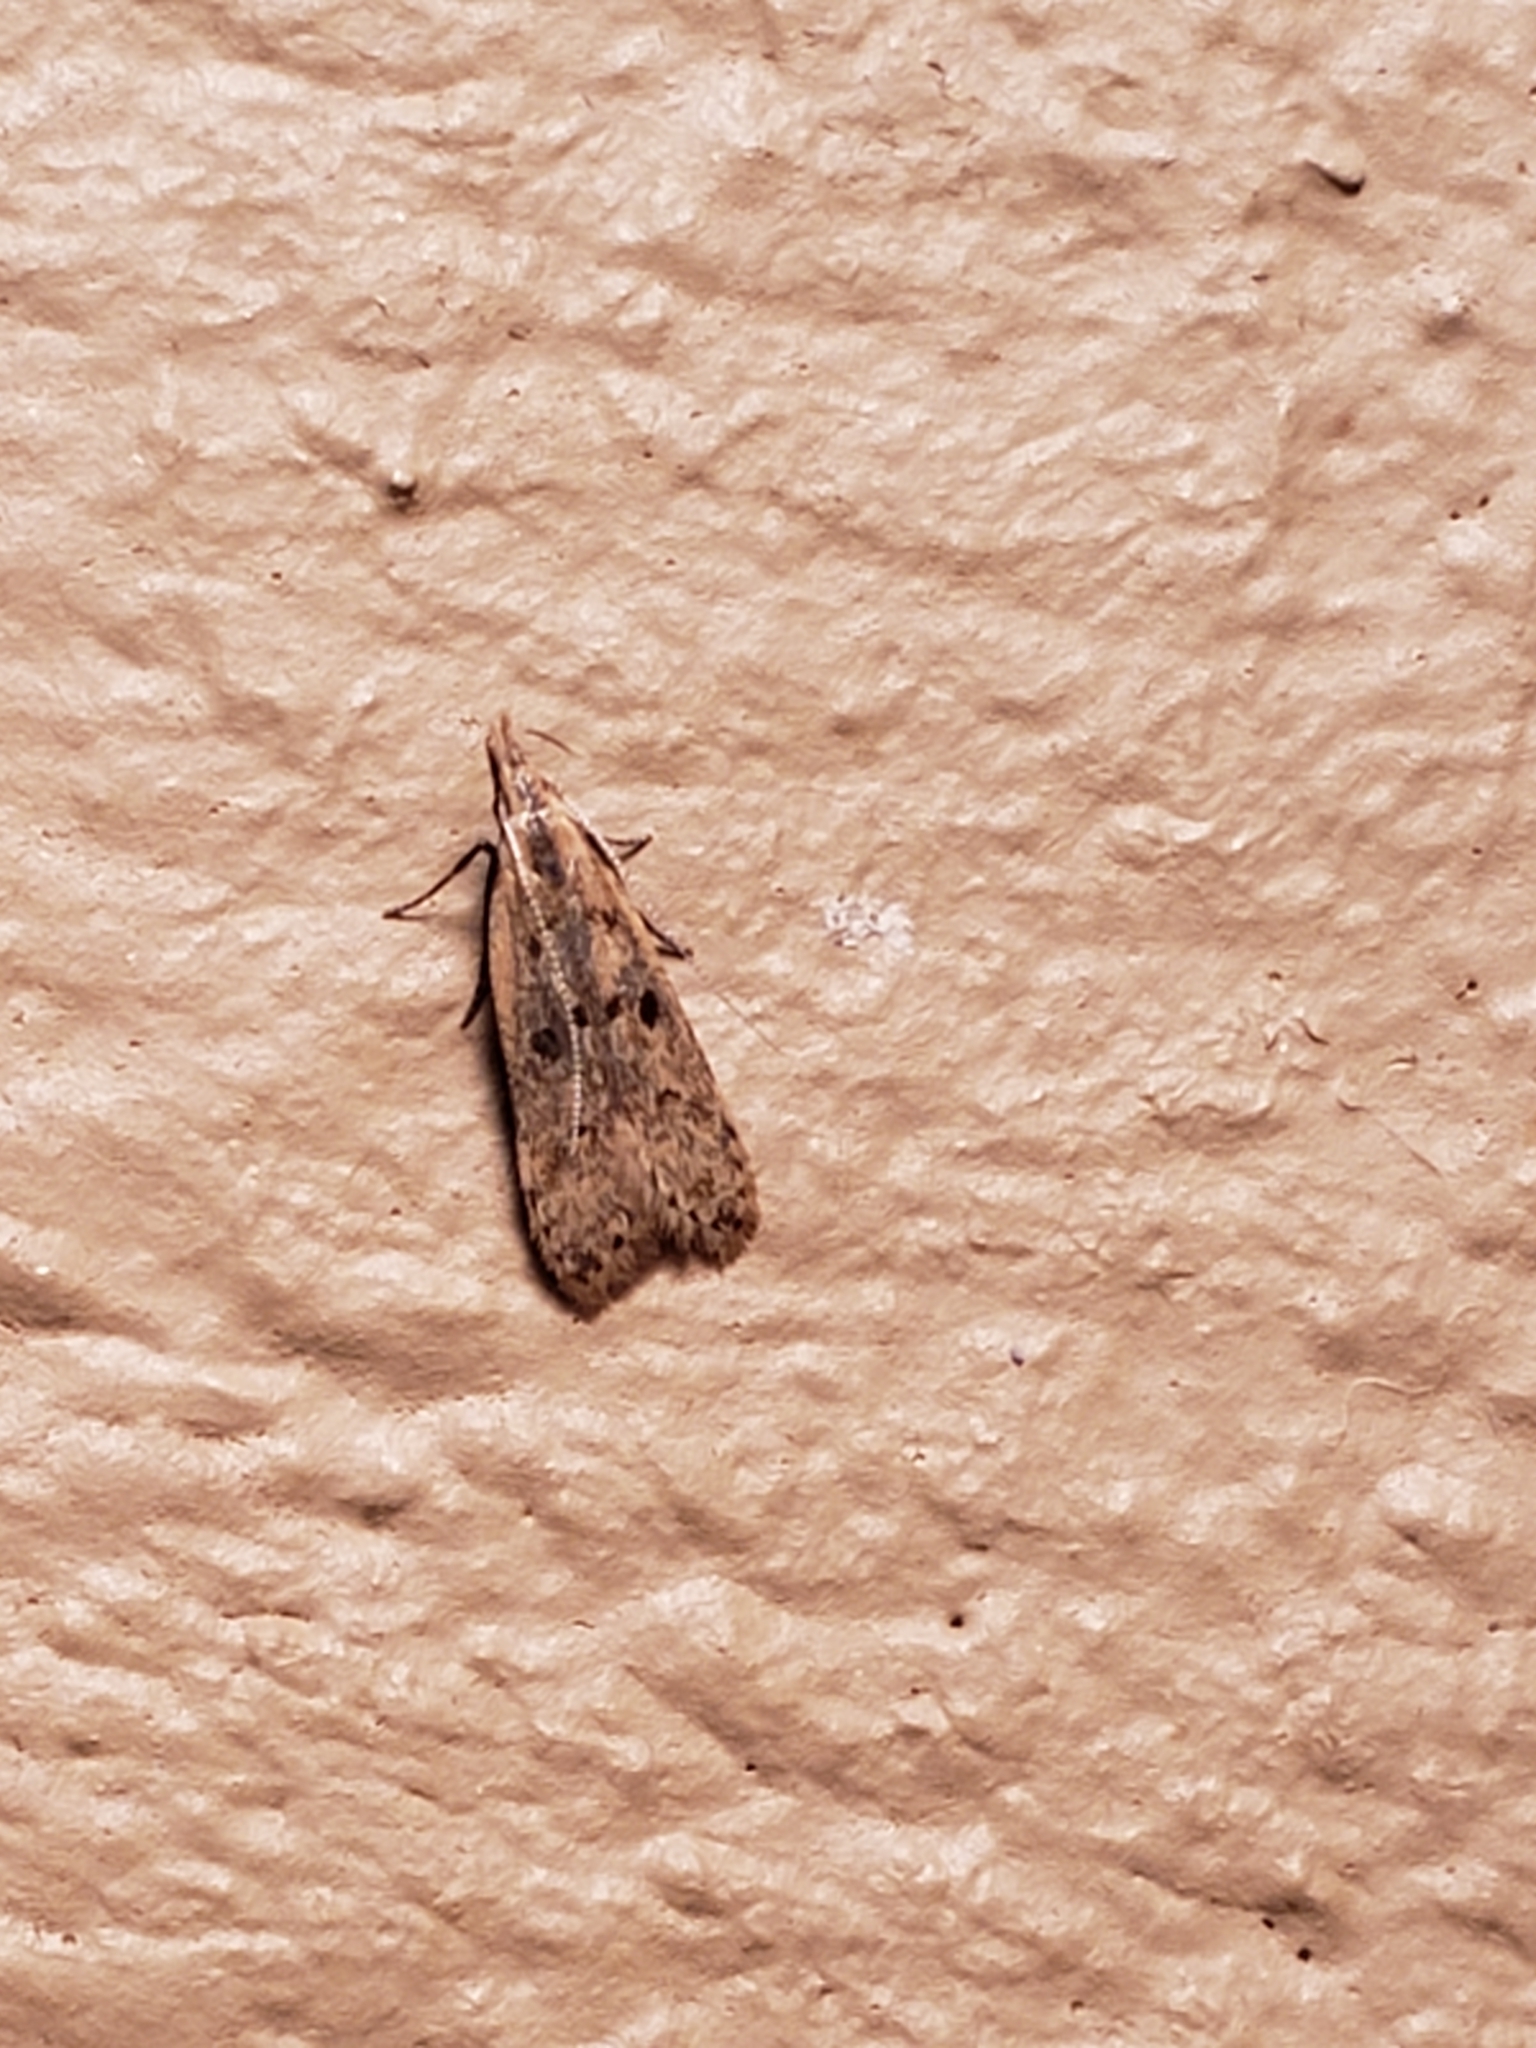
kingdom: Animalia
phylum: Arthropoda
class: Insecta
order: Lepidoptera
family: Gelechiidae
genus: Dichomeris
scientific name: Dichomeris punctipennella
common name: Many-spotted dichomeris moth
